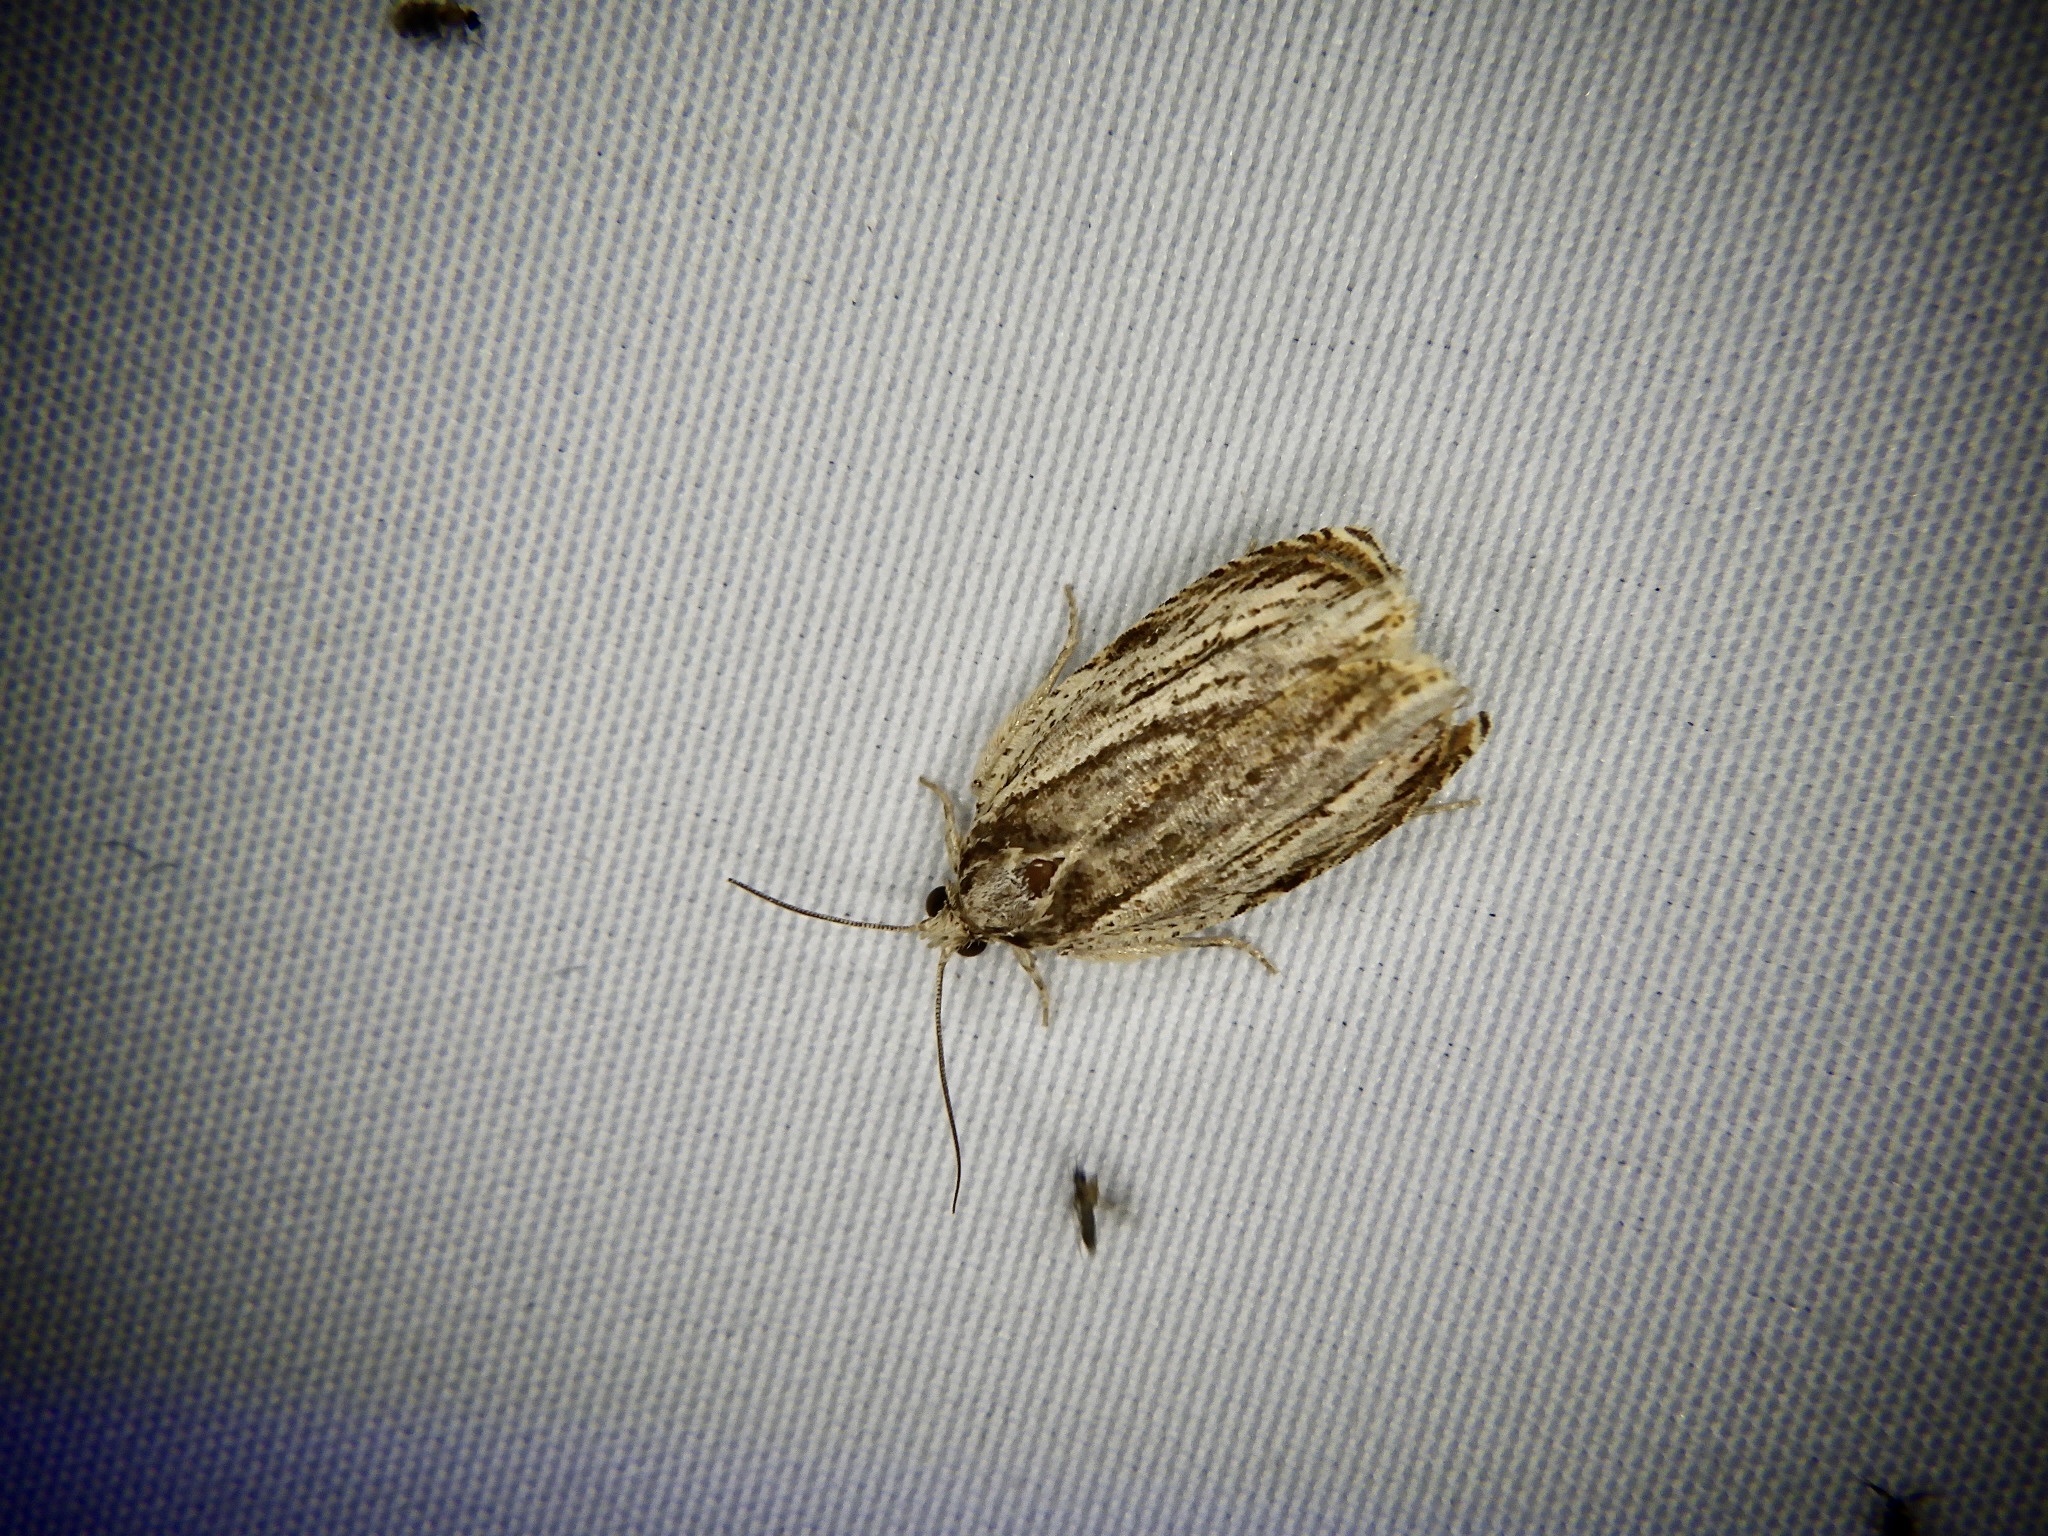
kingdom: Animalia
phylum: Arthropoda
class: Insecta
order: Lepidoptera
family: Tortricidae
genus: Phaecasiophora
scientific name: Phaecasiophora roseana
